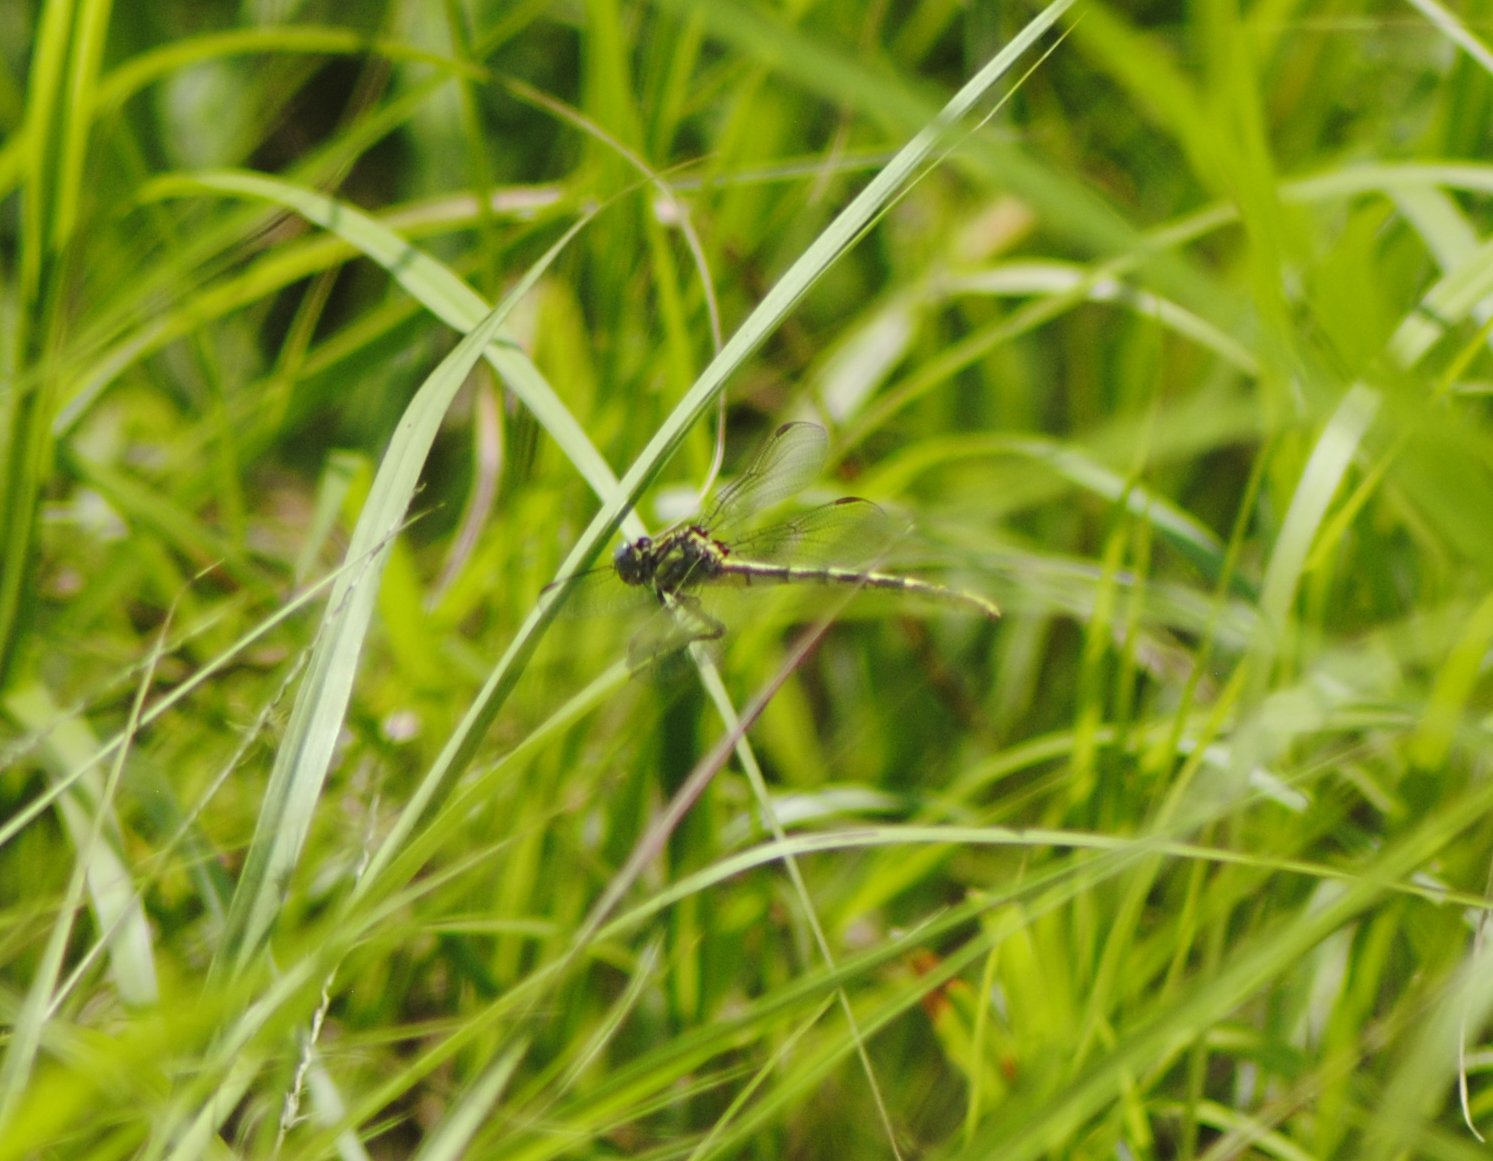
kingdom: Animalia
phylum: Arthropoda
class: Insecta
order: Odonata
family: Gomphidae
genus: Phanogomphus
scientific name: Phanogomphus militaris
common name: Sulphur-tipped clubtail
